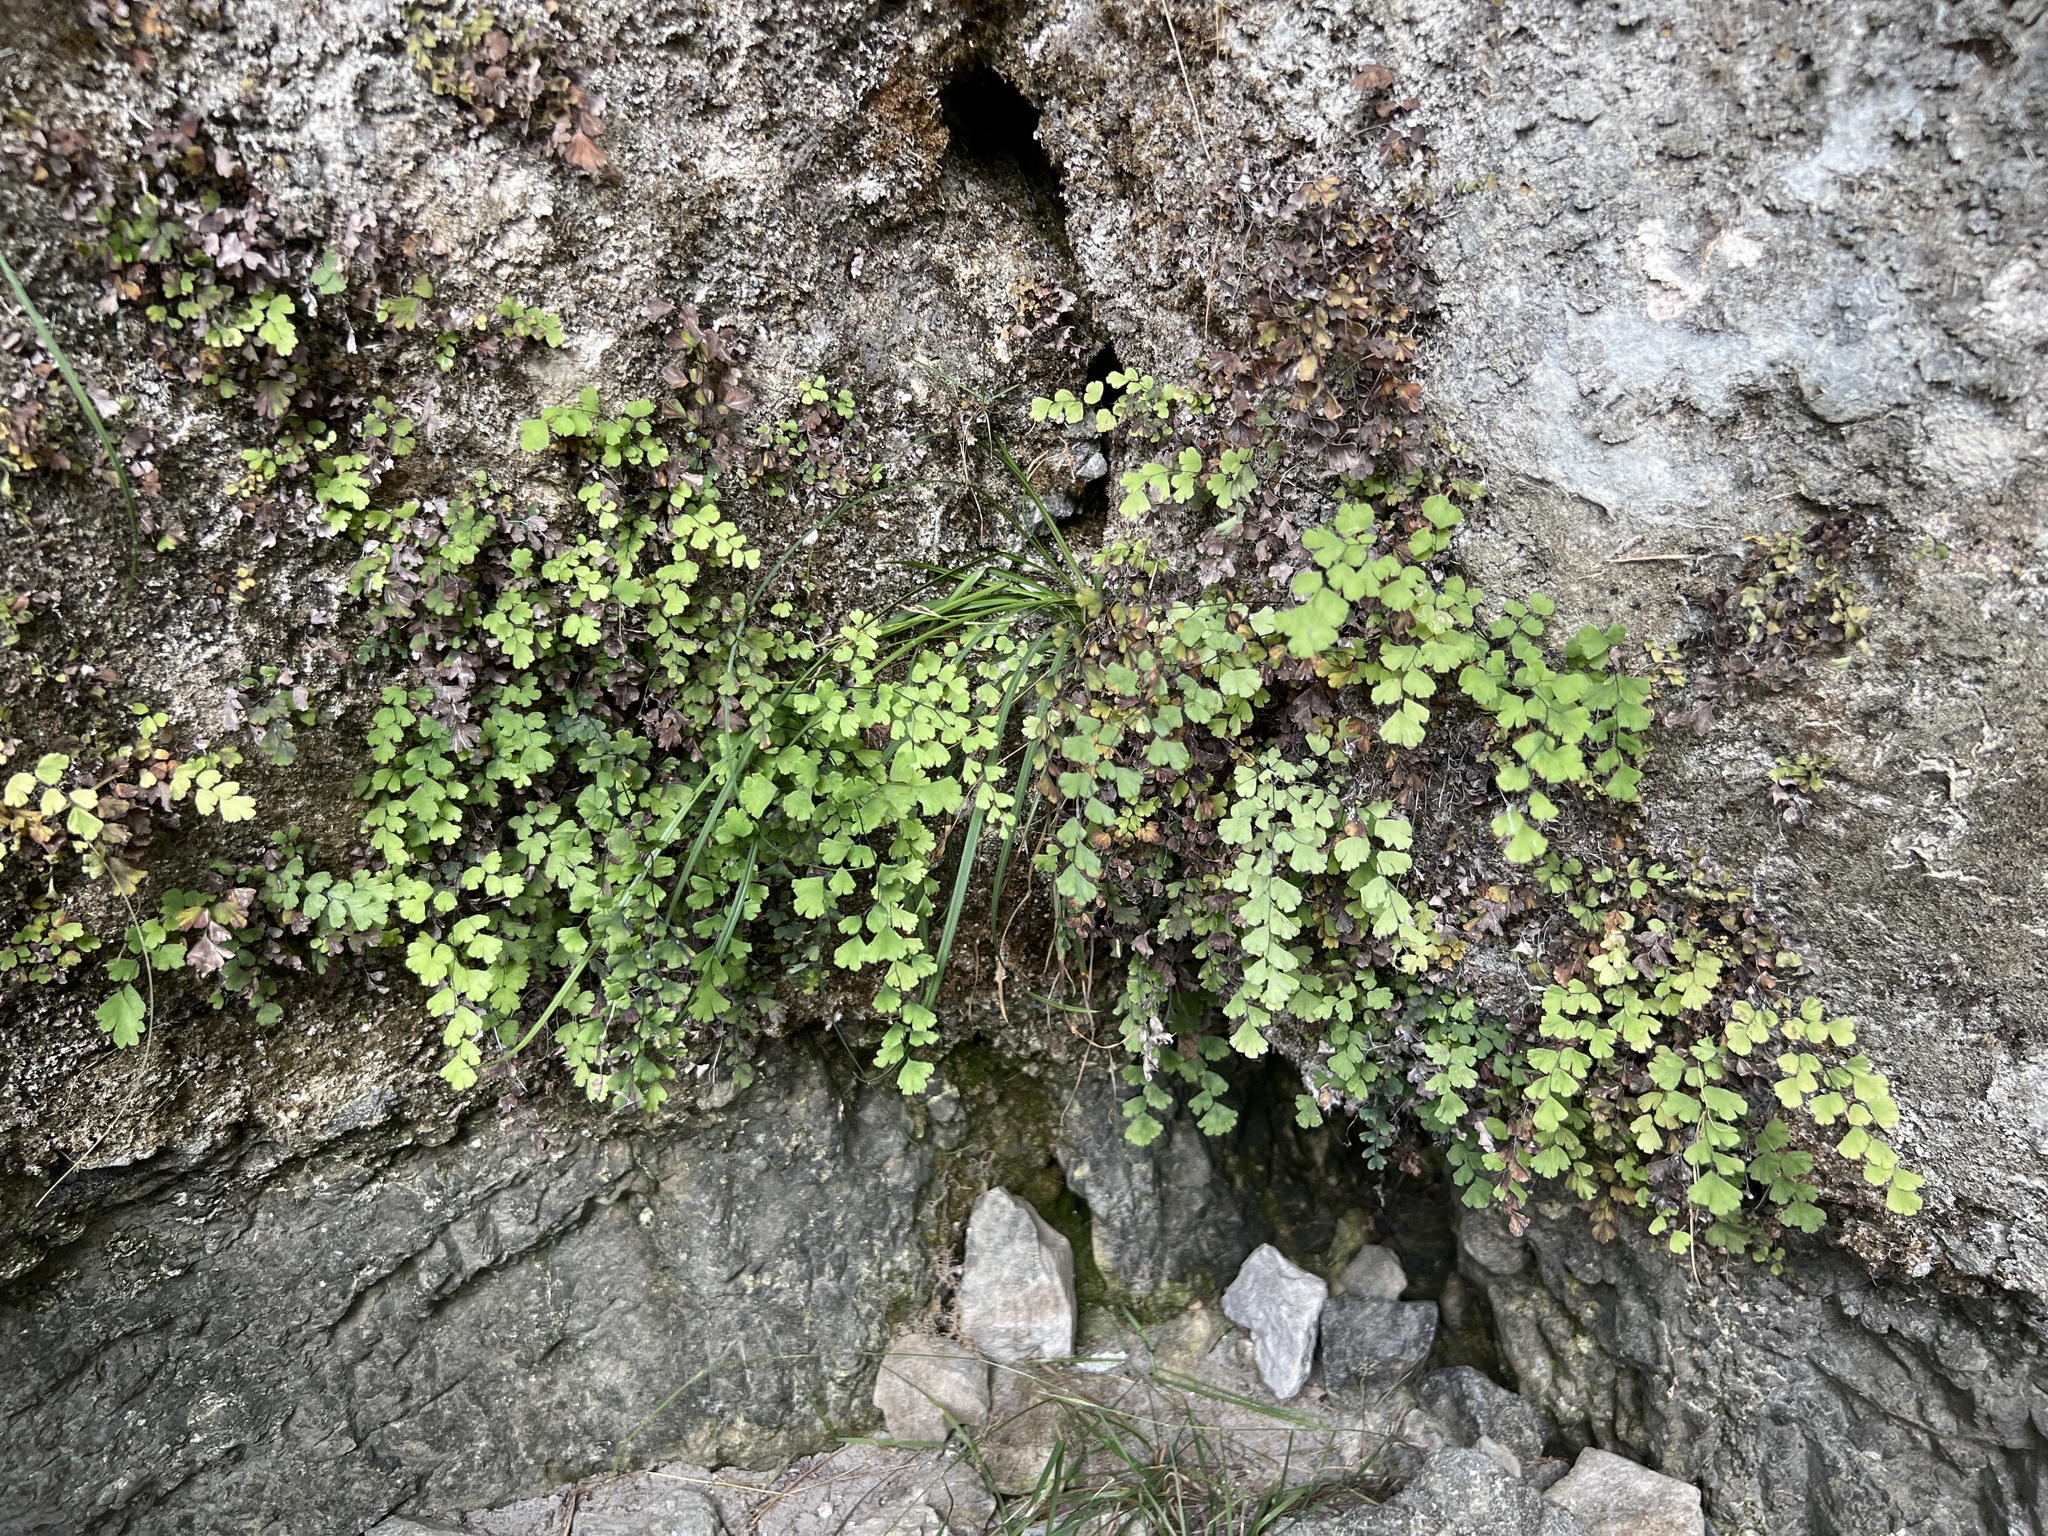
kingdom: Plantae
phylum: Tracheophyta
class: Polypodiopsida
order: Polypodiales
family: Pteridaceae
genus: Adiantum
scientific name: Adiantum capillus-veneris
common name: Maidenhair fern
